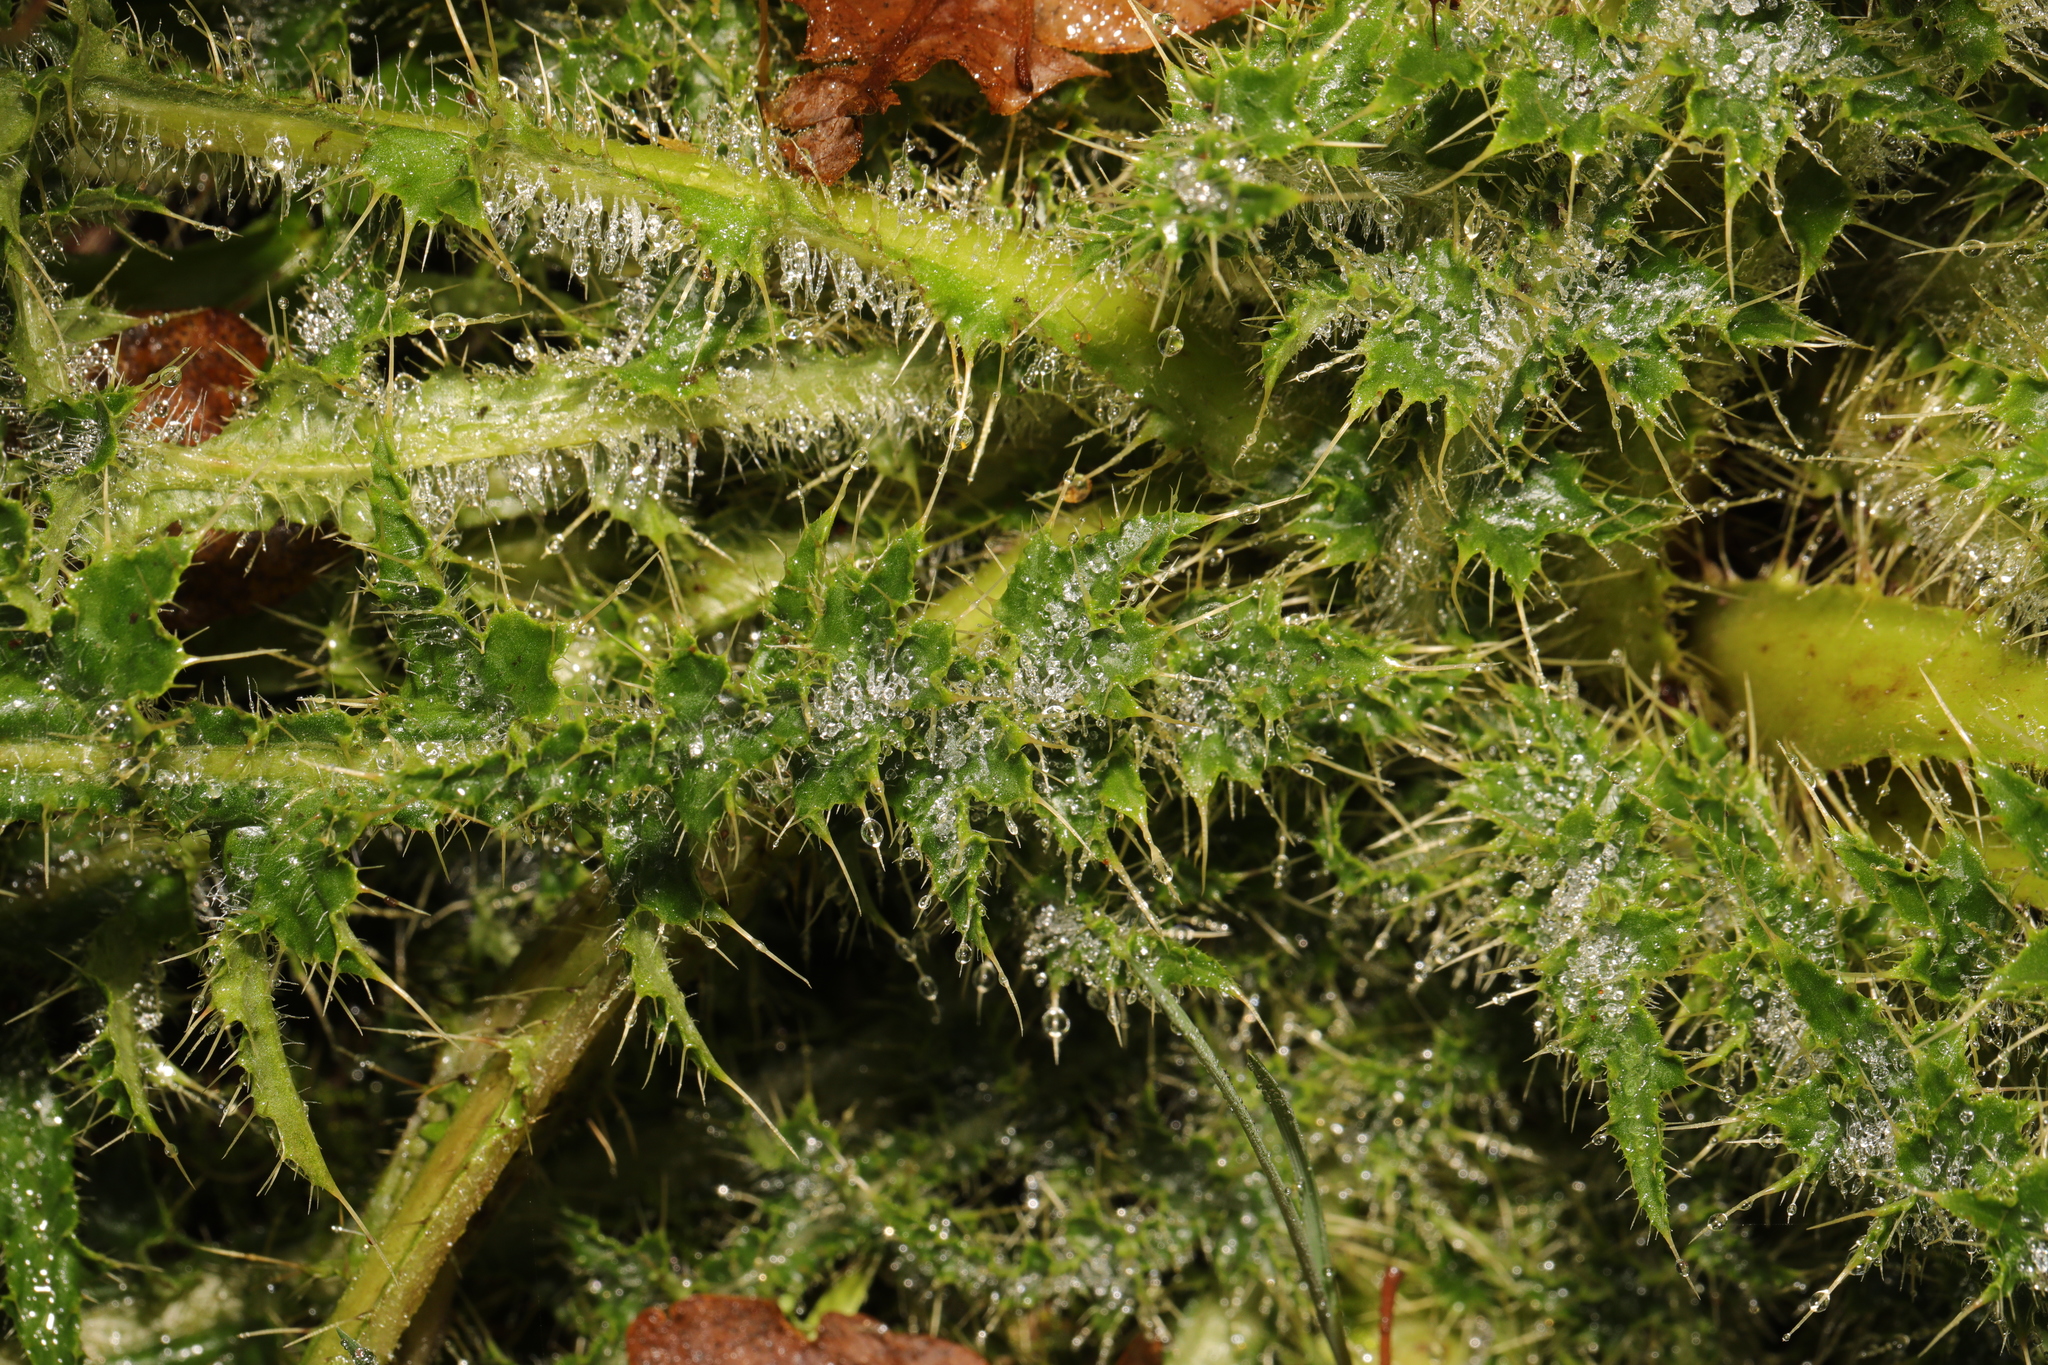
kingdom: Plantae
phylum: Tracheophyta
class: Magnoliopsida
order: Asterales
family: Asteraceae
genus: Cirsium
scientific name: Cirsium palustre
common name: Marsh thistle
